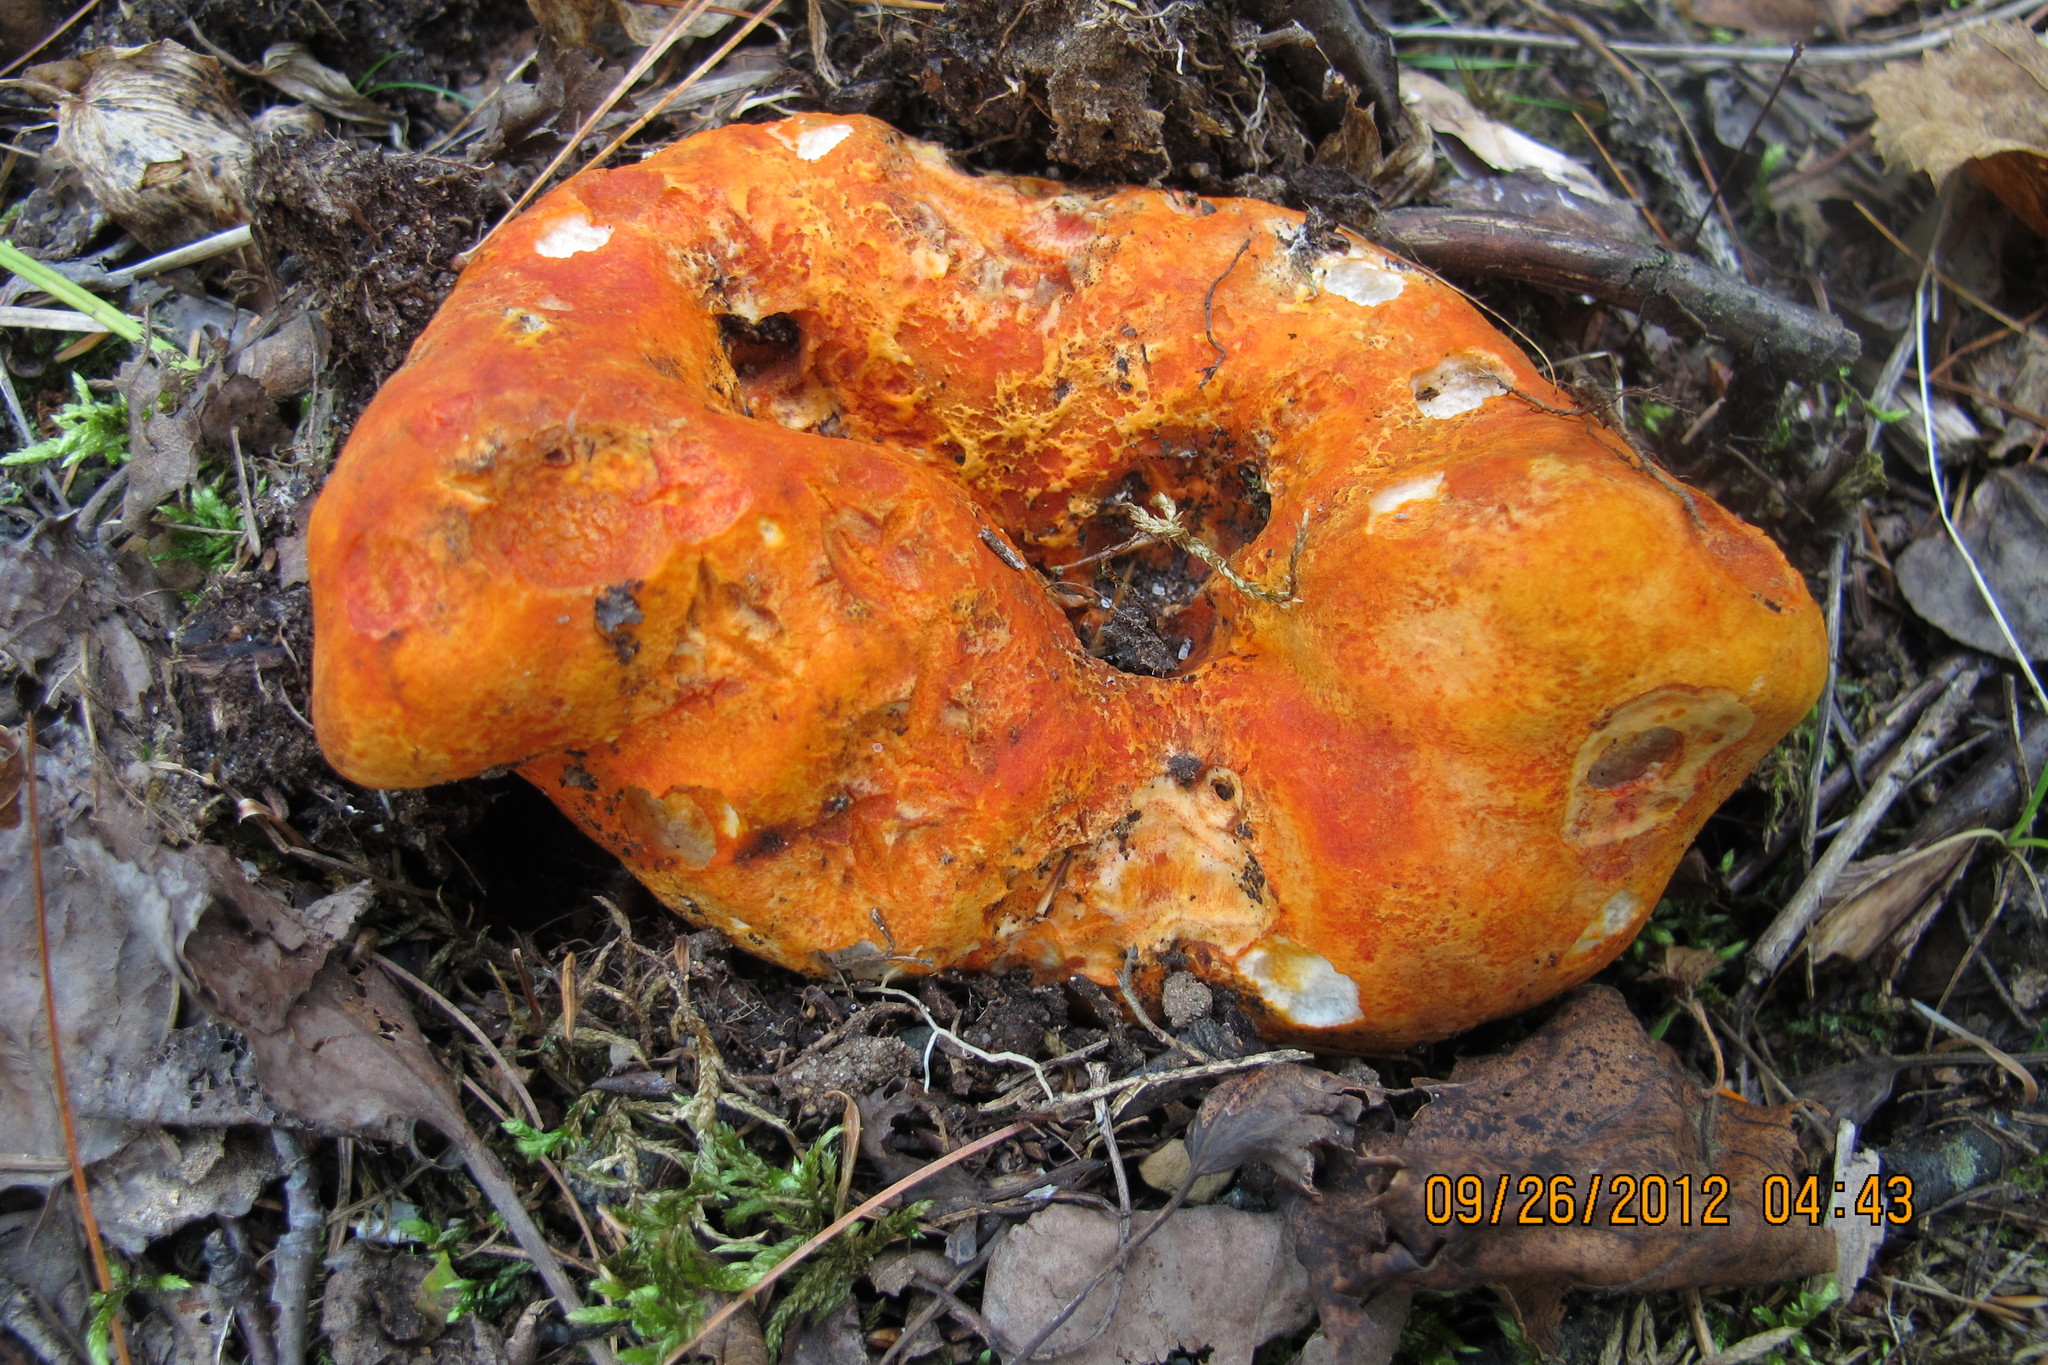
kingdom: Fungi
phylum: Ascomycota
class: Sordariomycetes
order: Hypocreales
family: Hypocreaceae
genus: Hypomyces
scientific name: Hypomyces lactifluorum
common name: Lobster mushroom
